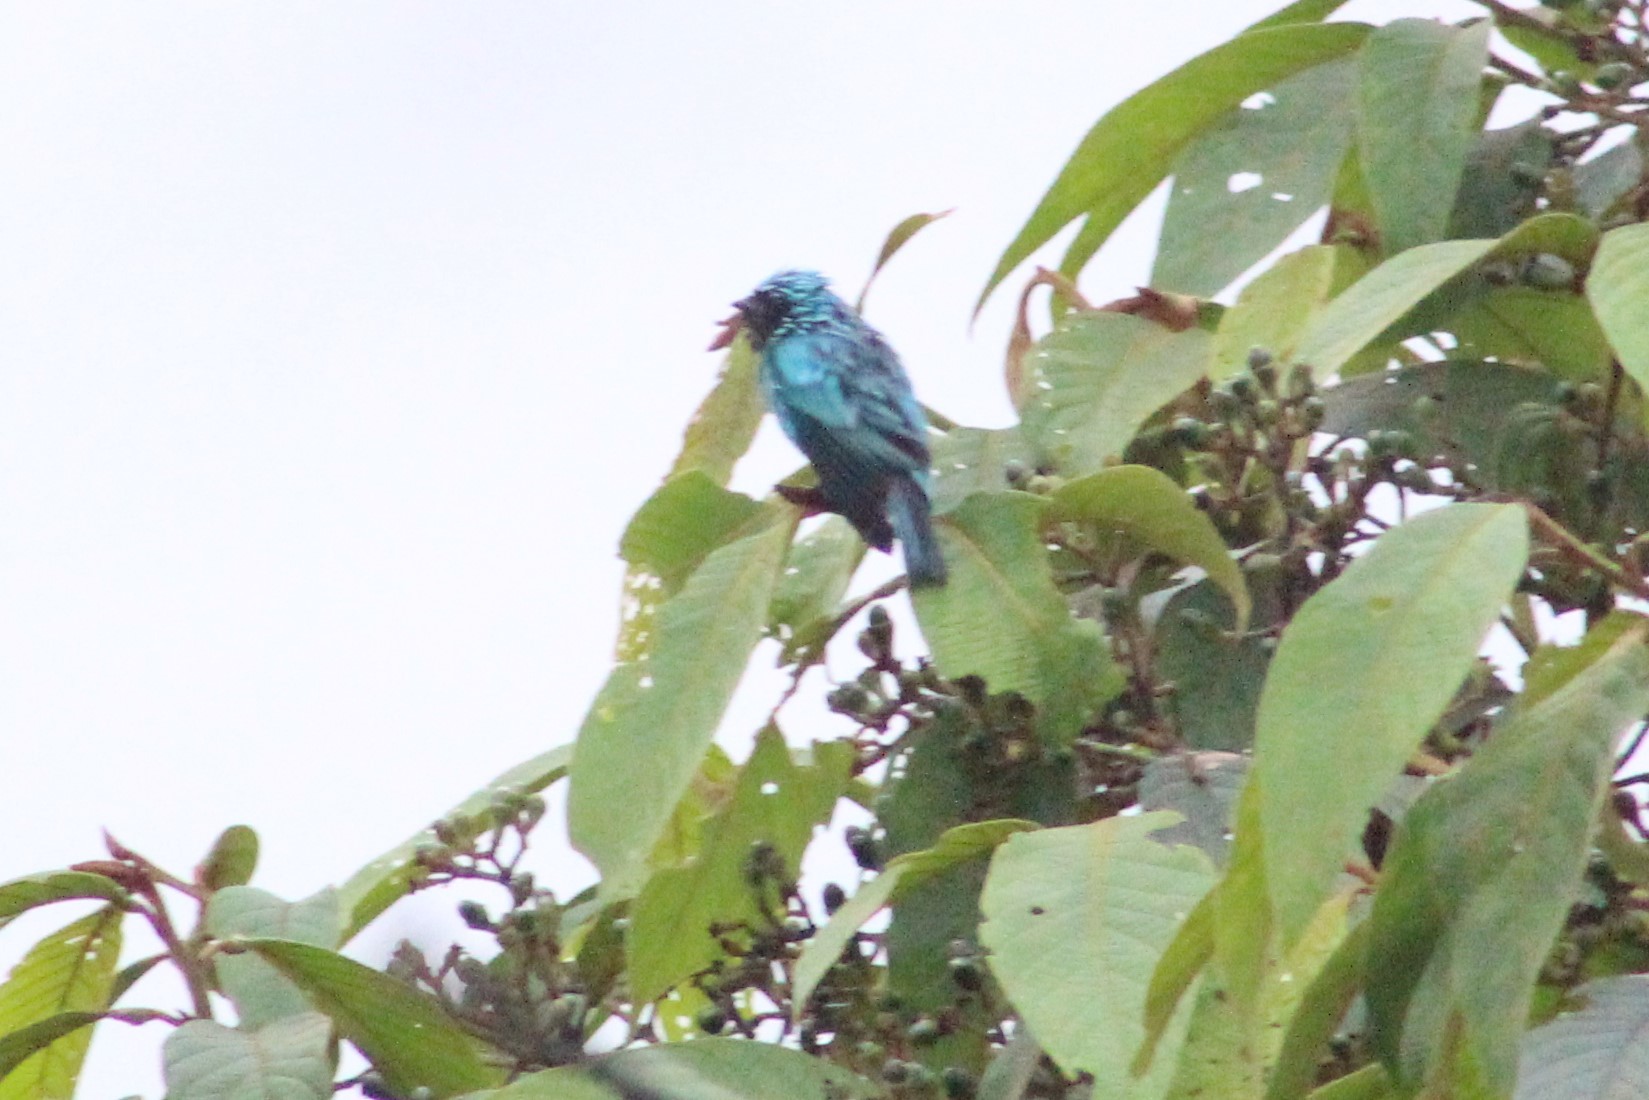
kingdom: Animalia
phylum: Chordata
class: Aves
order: Passeriformes
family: Thraupidae
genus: Tersina
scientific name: Tersina viridis
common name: Swallow tanager
